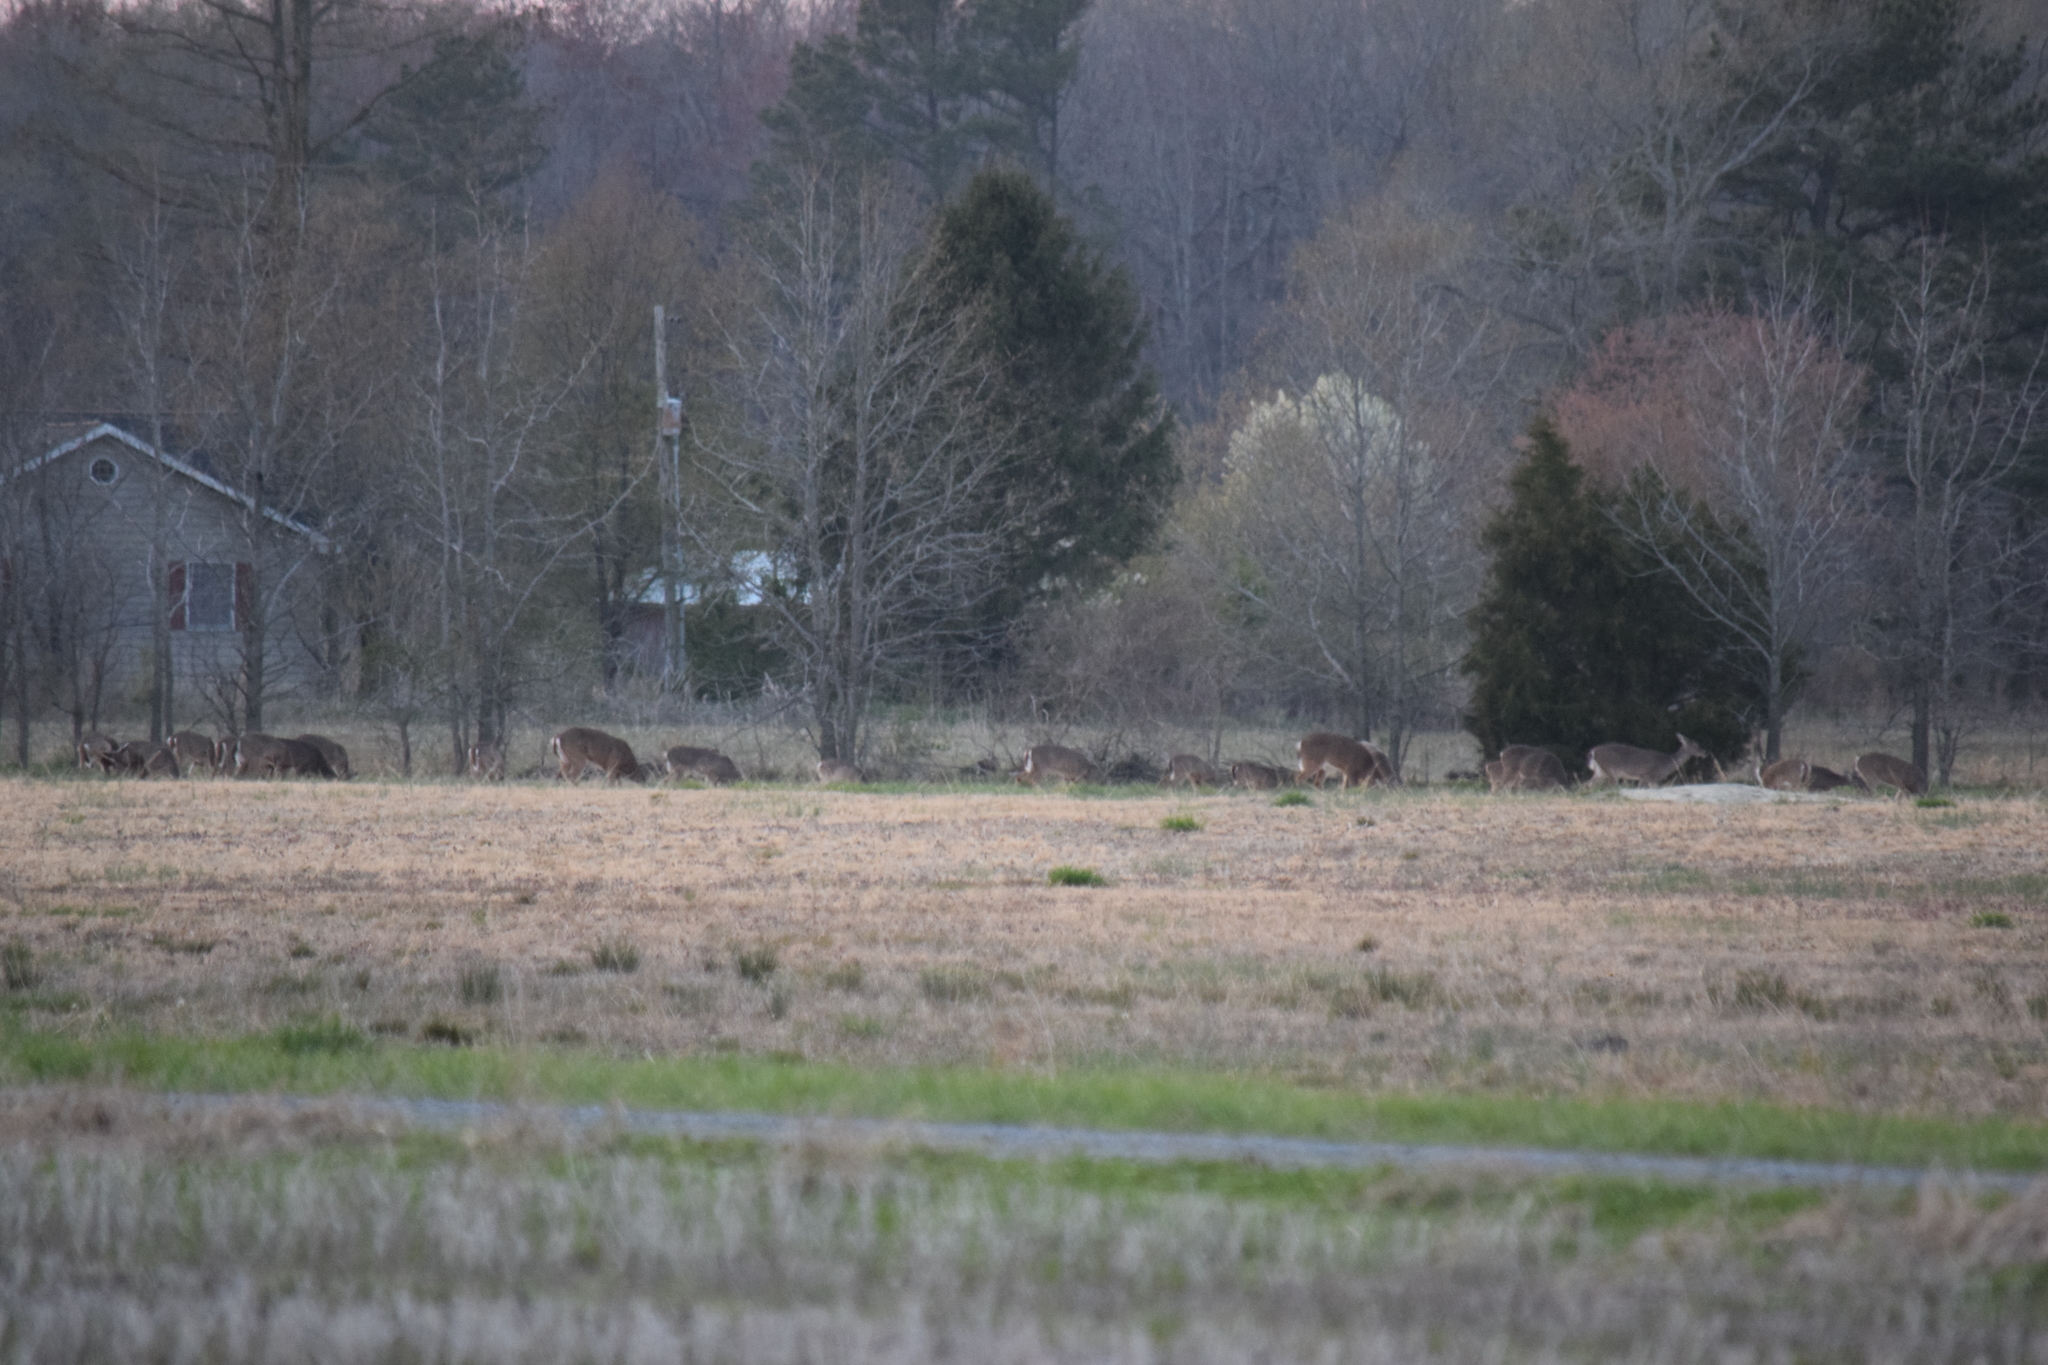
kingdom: Animalia
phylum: Chordata
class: Mammalia
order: Artiodactyla
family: Cervidae
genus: Odocoileus
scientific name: Odocoileus virginianus
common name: White-tailed deer
